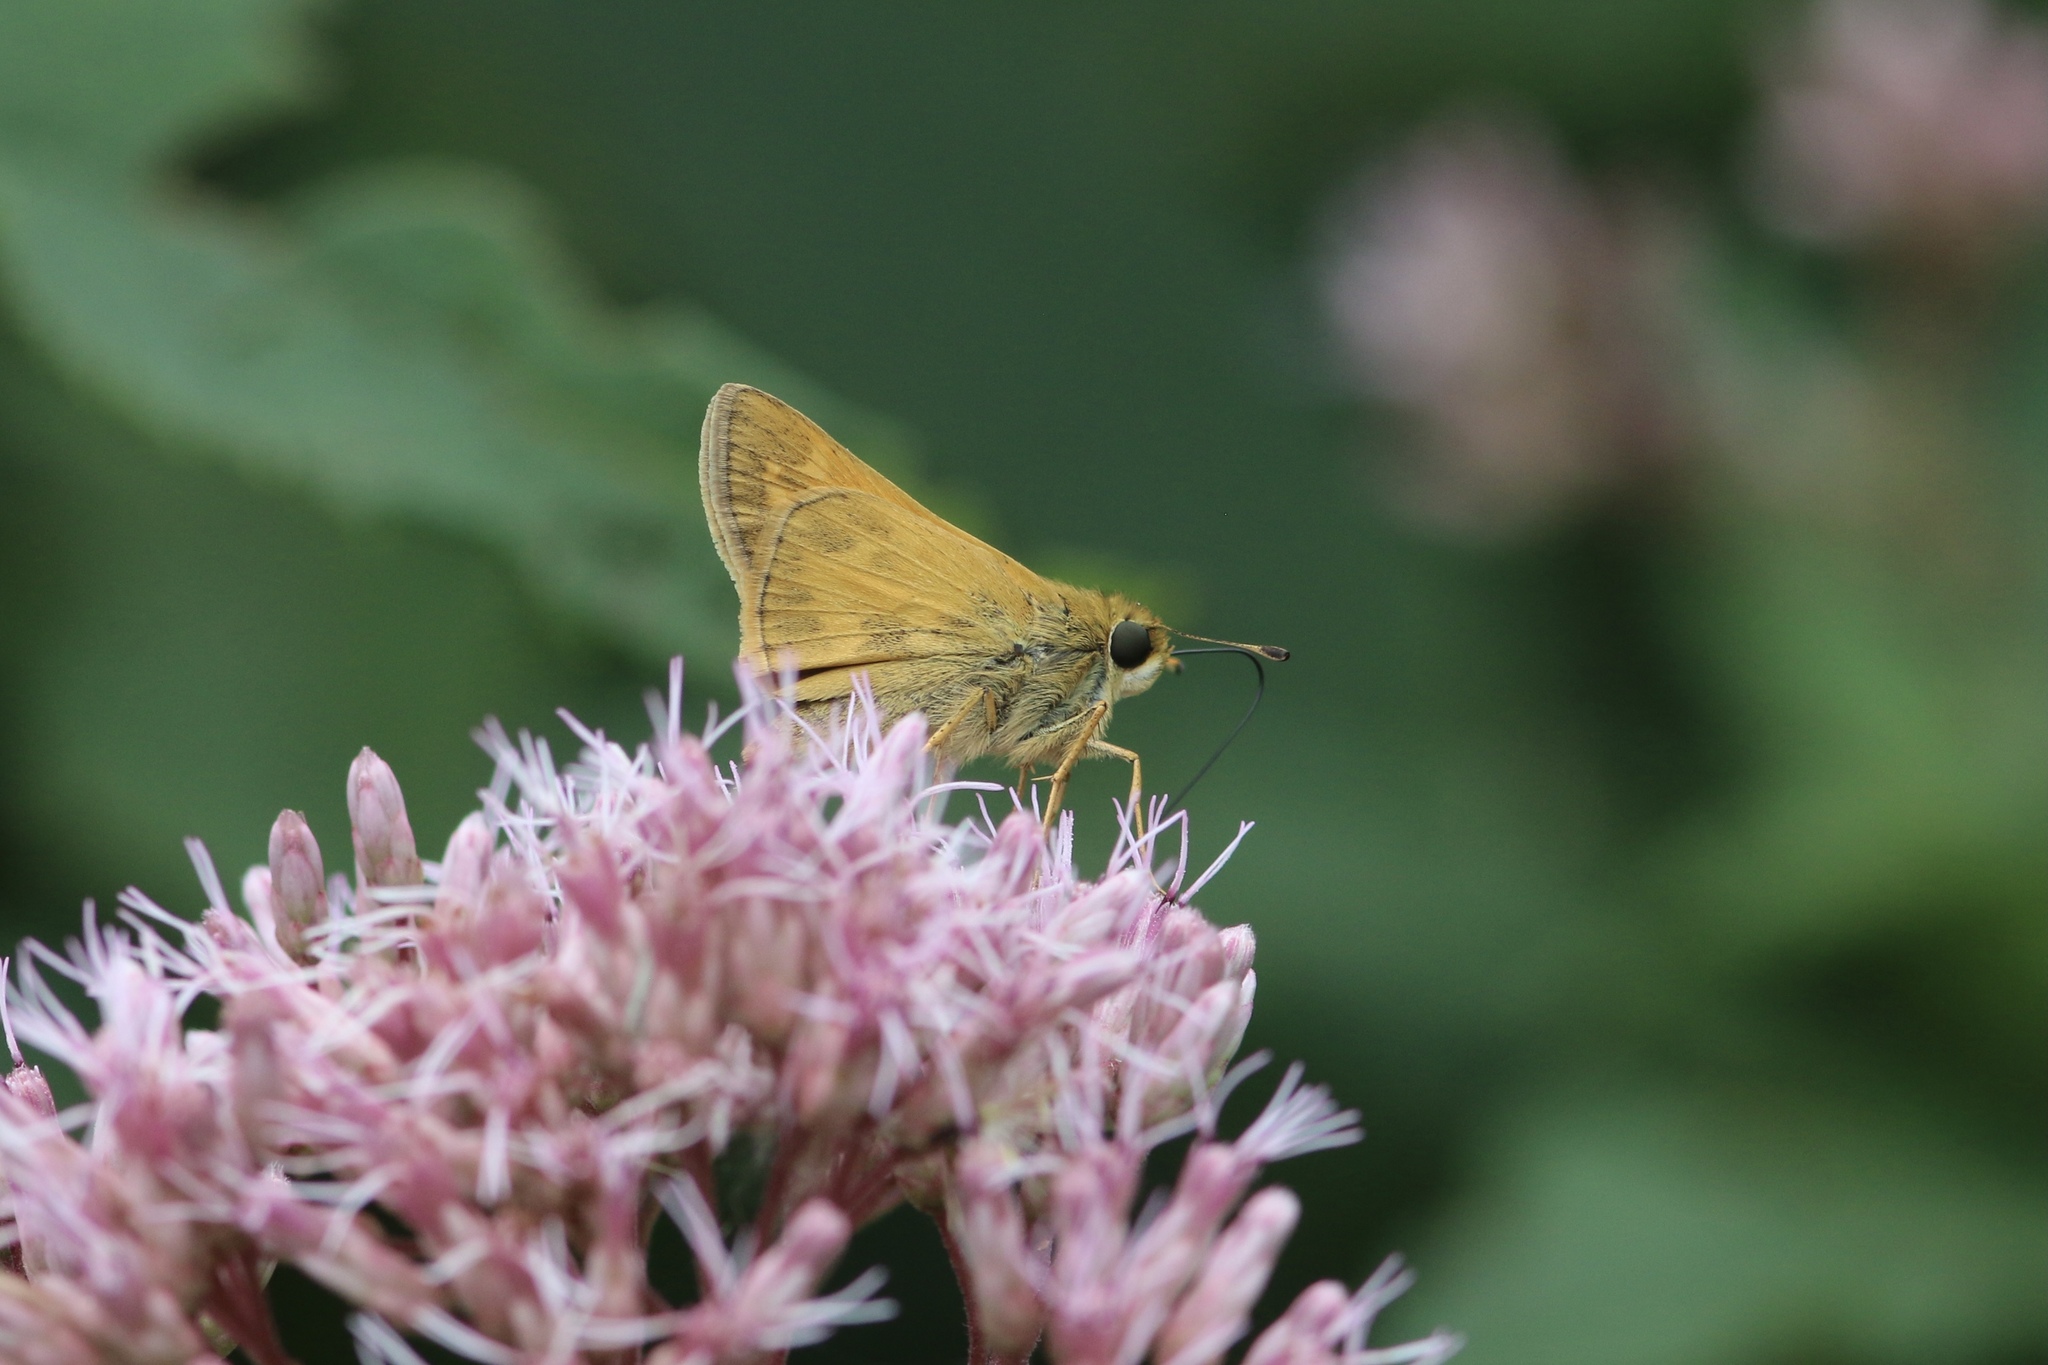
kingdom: Animalia
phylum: Arthropoda
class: Insecta
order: Lepidoptera
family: Hesperiidae
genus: Atalopedes
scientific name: Atalopedes
